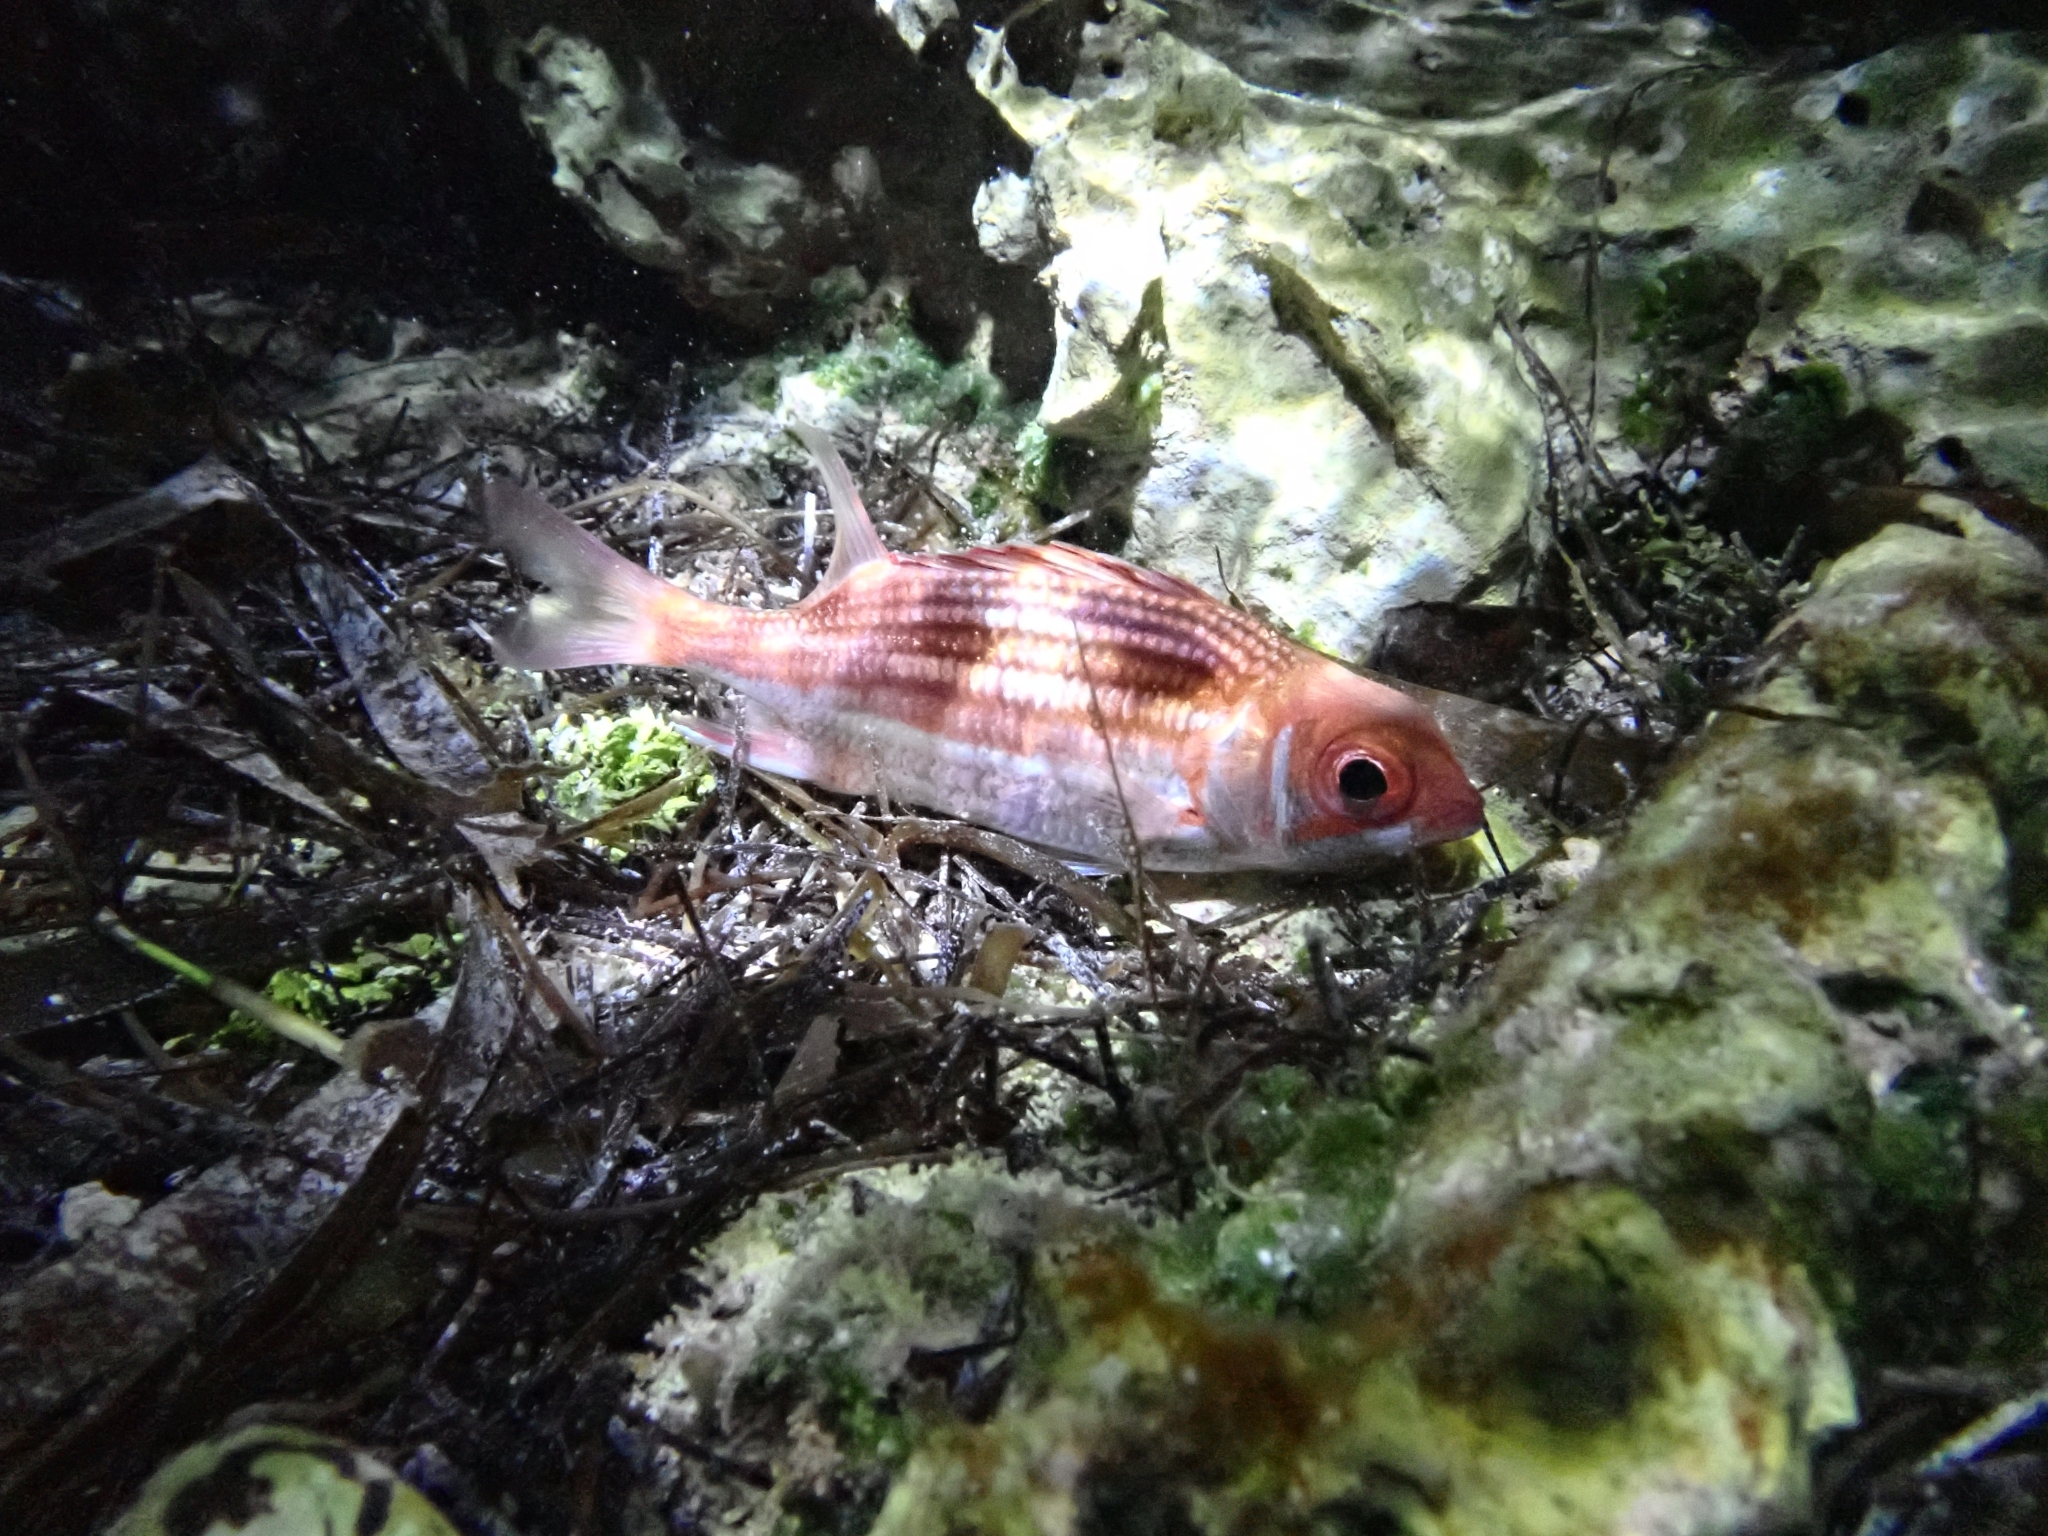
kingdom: Animalia
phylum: Chordata
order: Beryciformes
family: Holocentridae
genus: Neoniphon
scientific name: Neoniphon vexillarium
